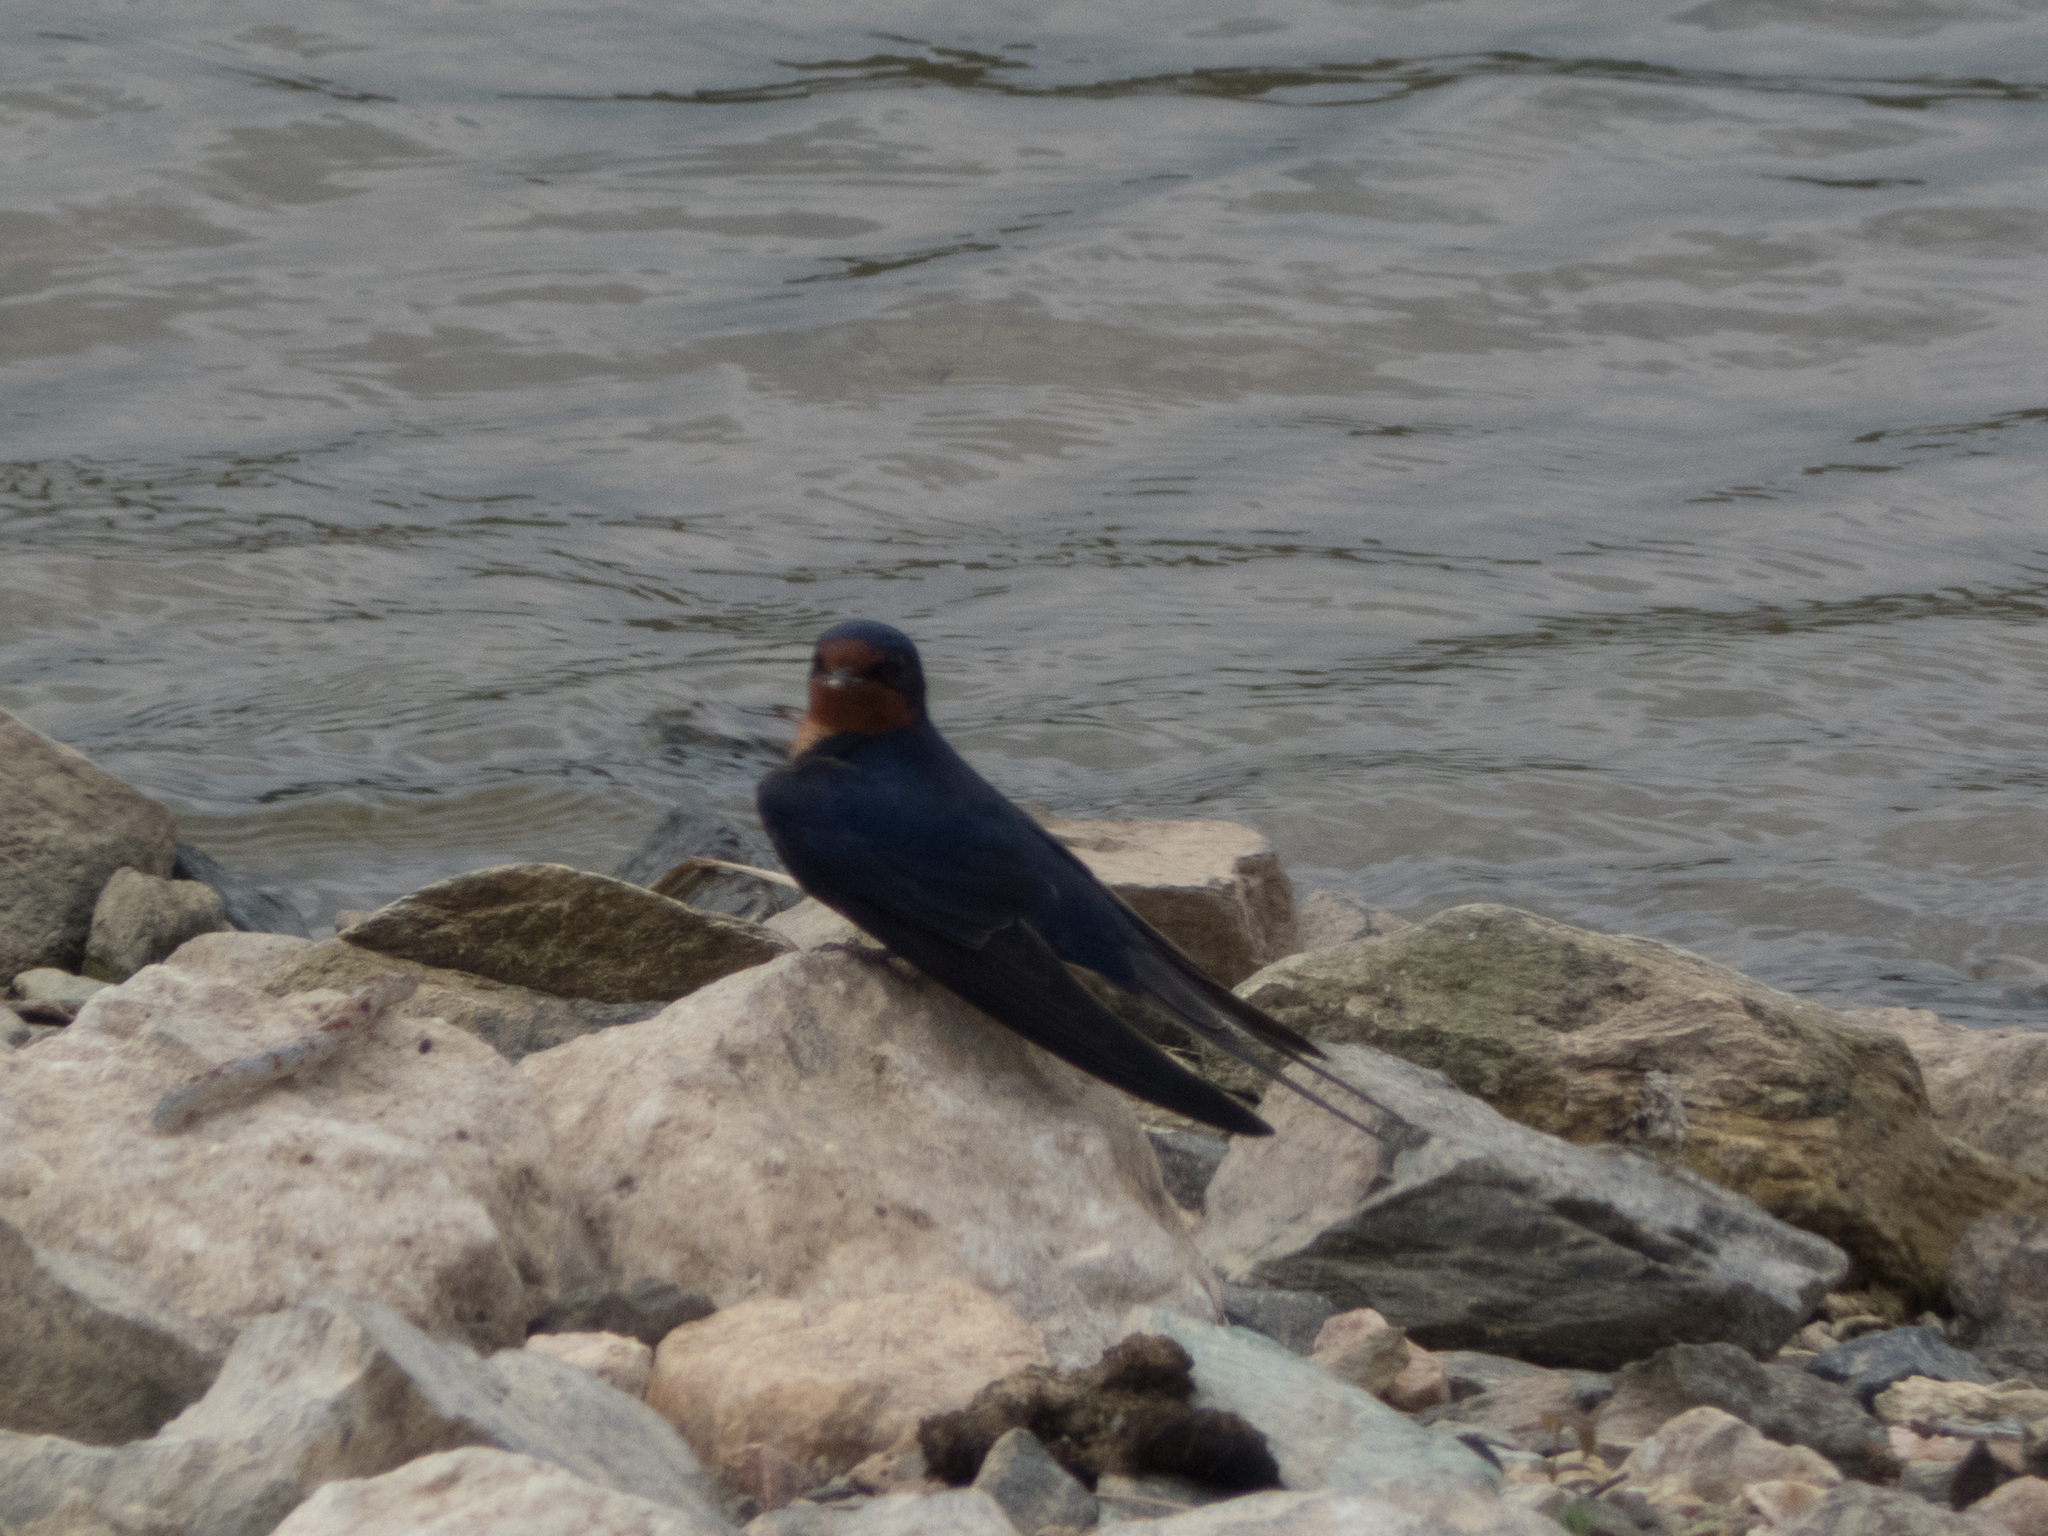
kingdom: Animalia
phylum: Chordata
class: Aves
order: Passeriformes
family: Hirundinidae
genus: Hirundo
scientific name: Hirundo rustica
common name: Barn swallow
